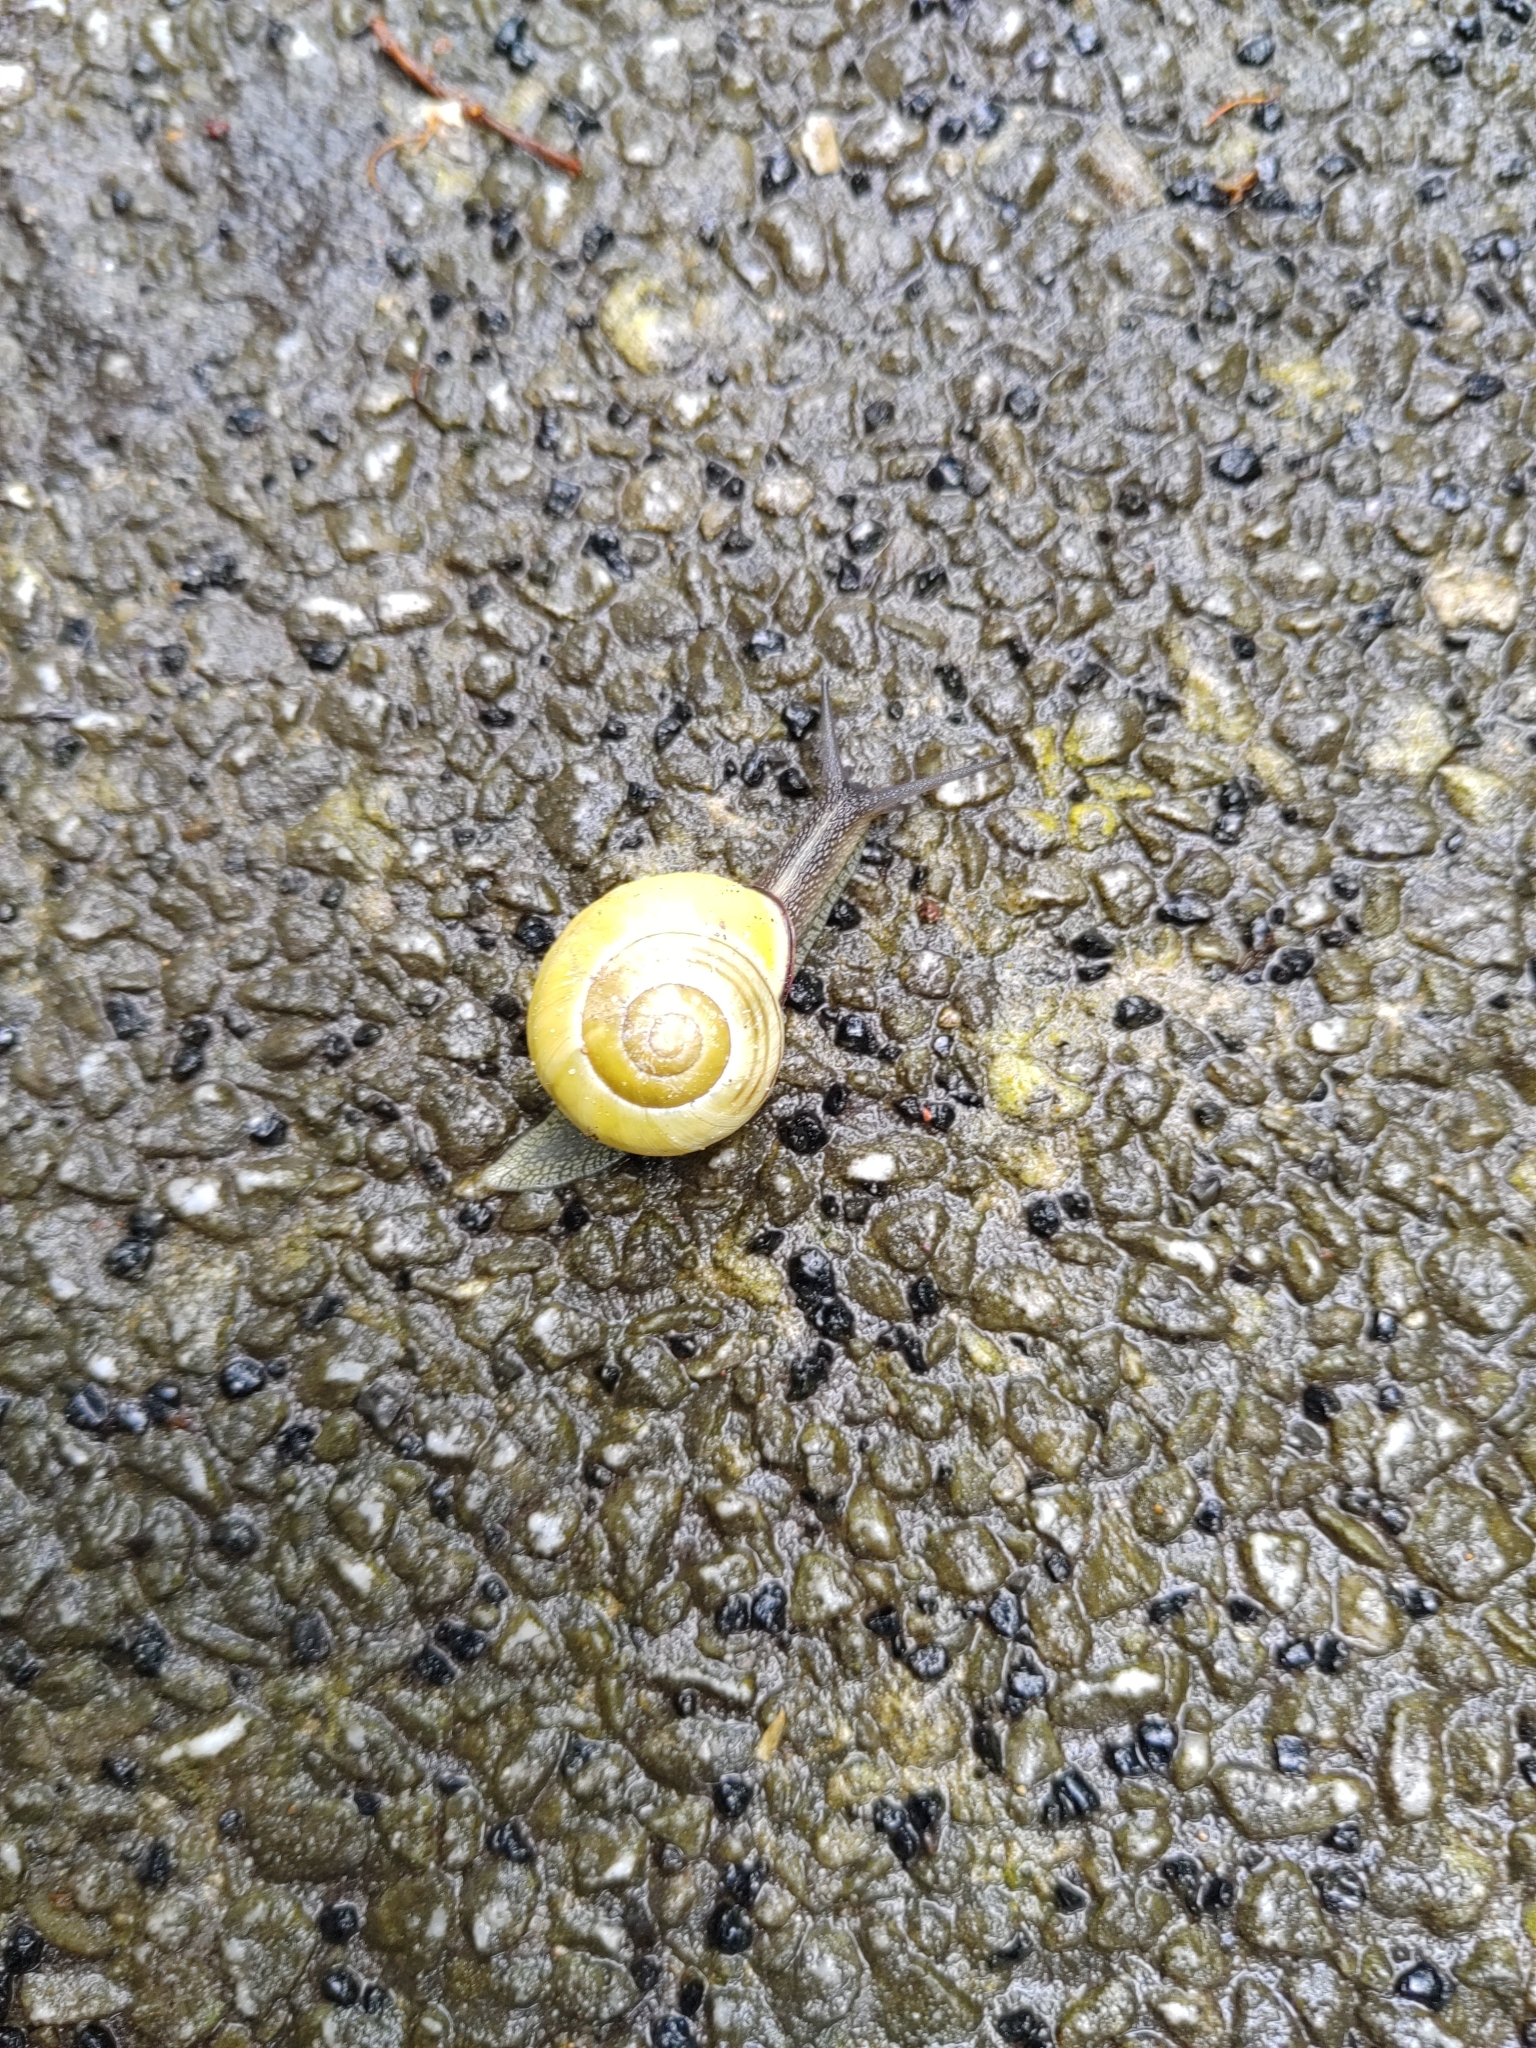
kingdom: Animalia
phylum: Mollusca
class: Gastropoda
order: Stylommatophora
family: Helicidae
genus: Cepaea
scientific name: Cepaea nemoralis
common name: Grovesnail
